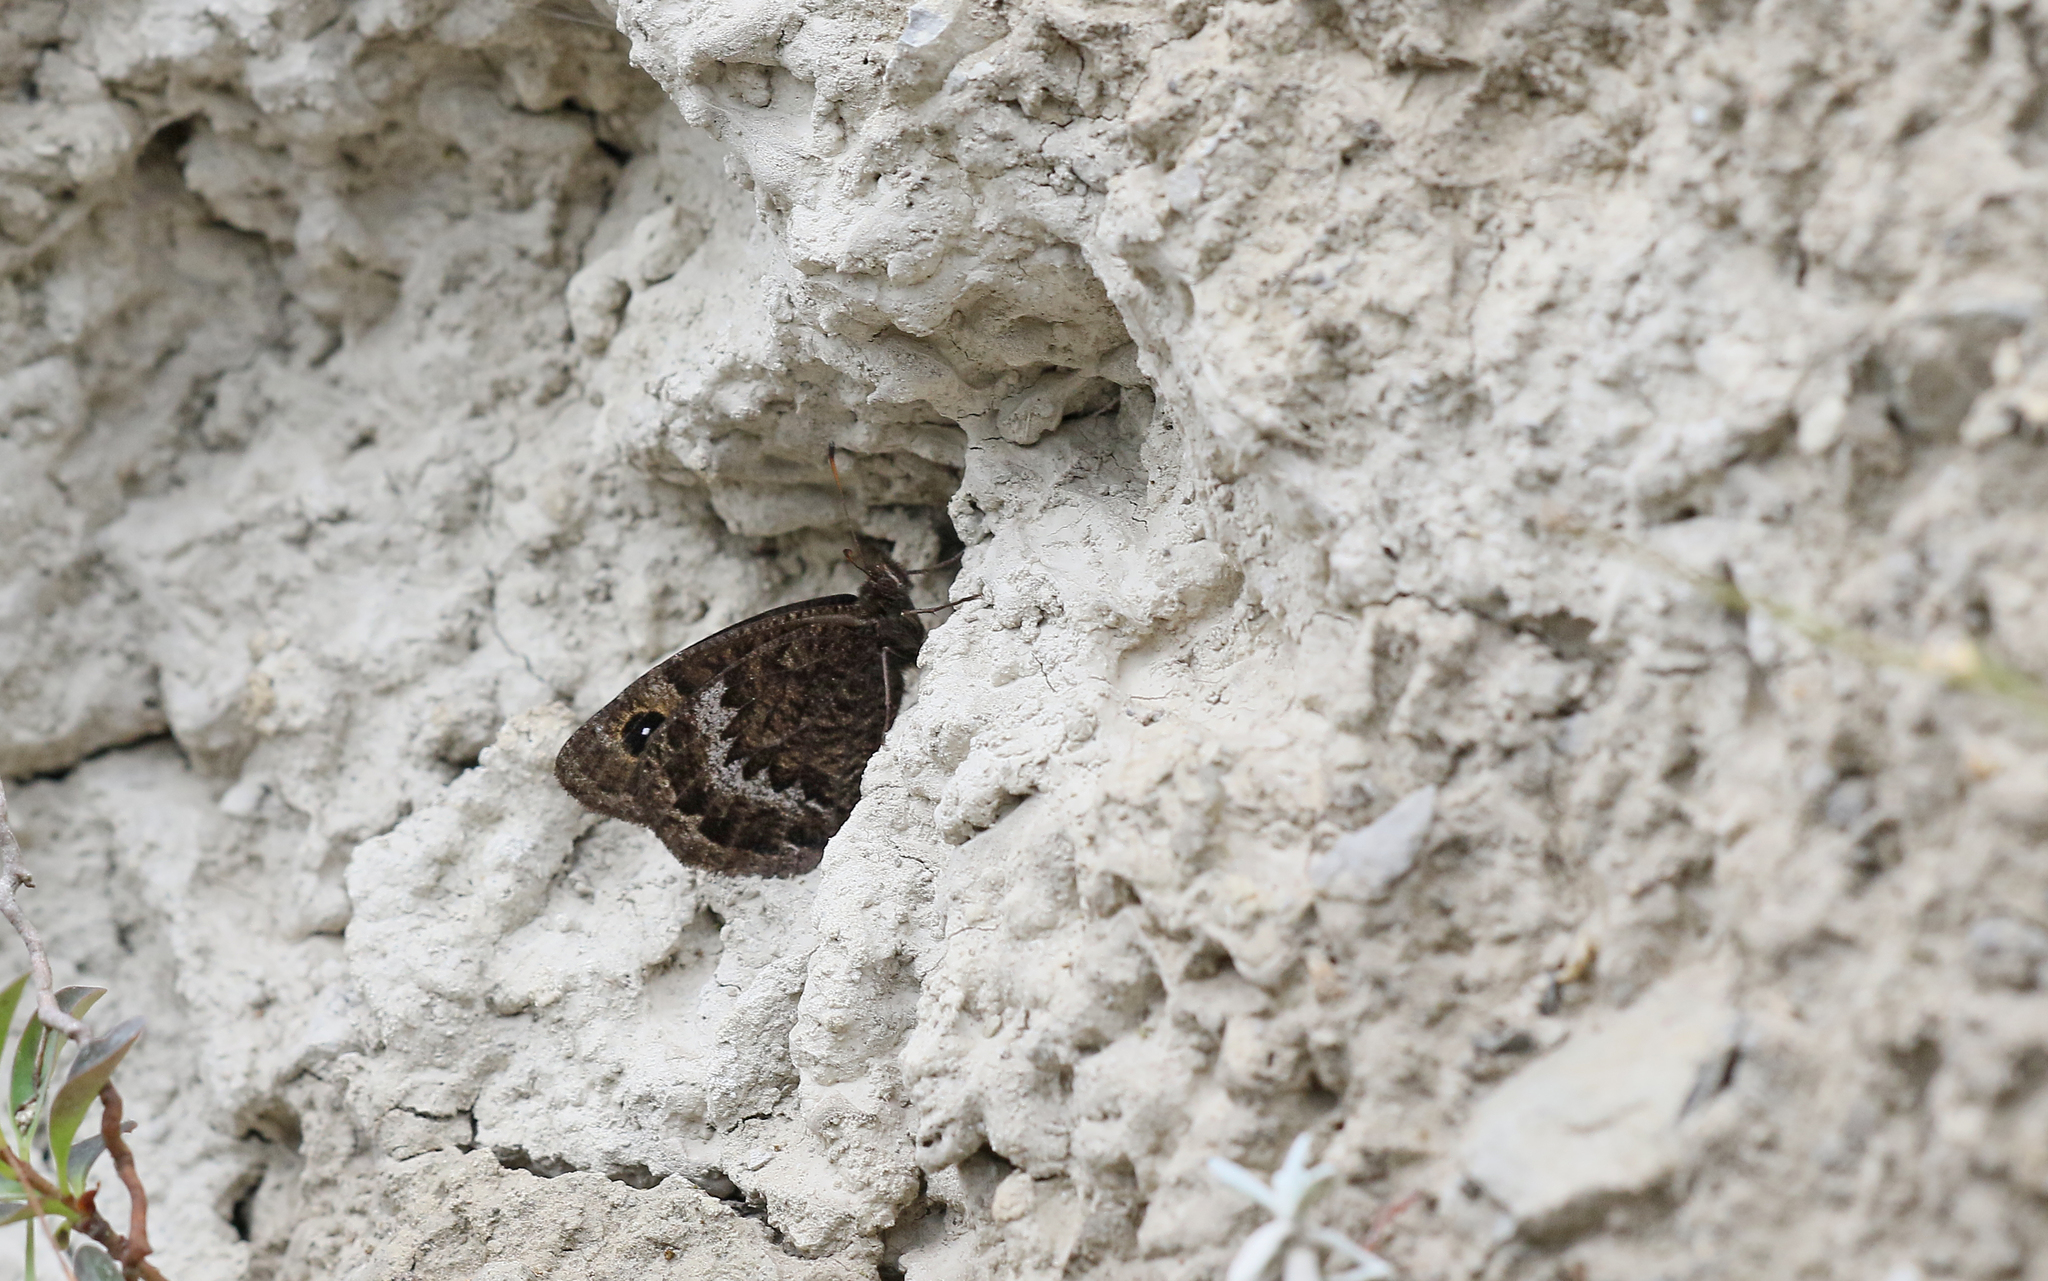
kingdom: Animalia
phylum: Arthropoda
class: Insecta
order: Lepidoptera
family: Nymphalidae
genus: Satyrus
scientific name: Satyrus actaea
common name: Black satyr
